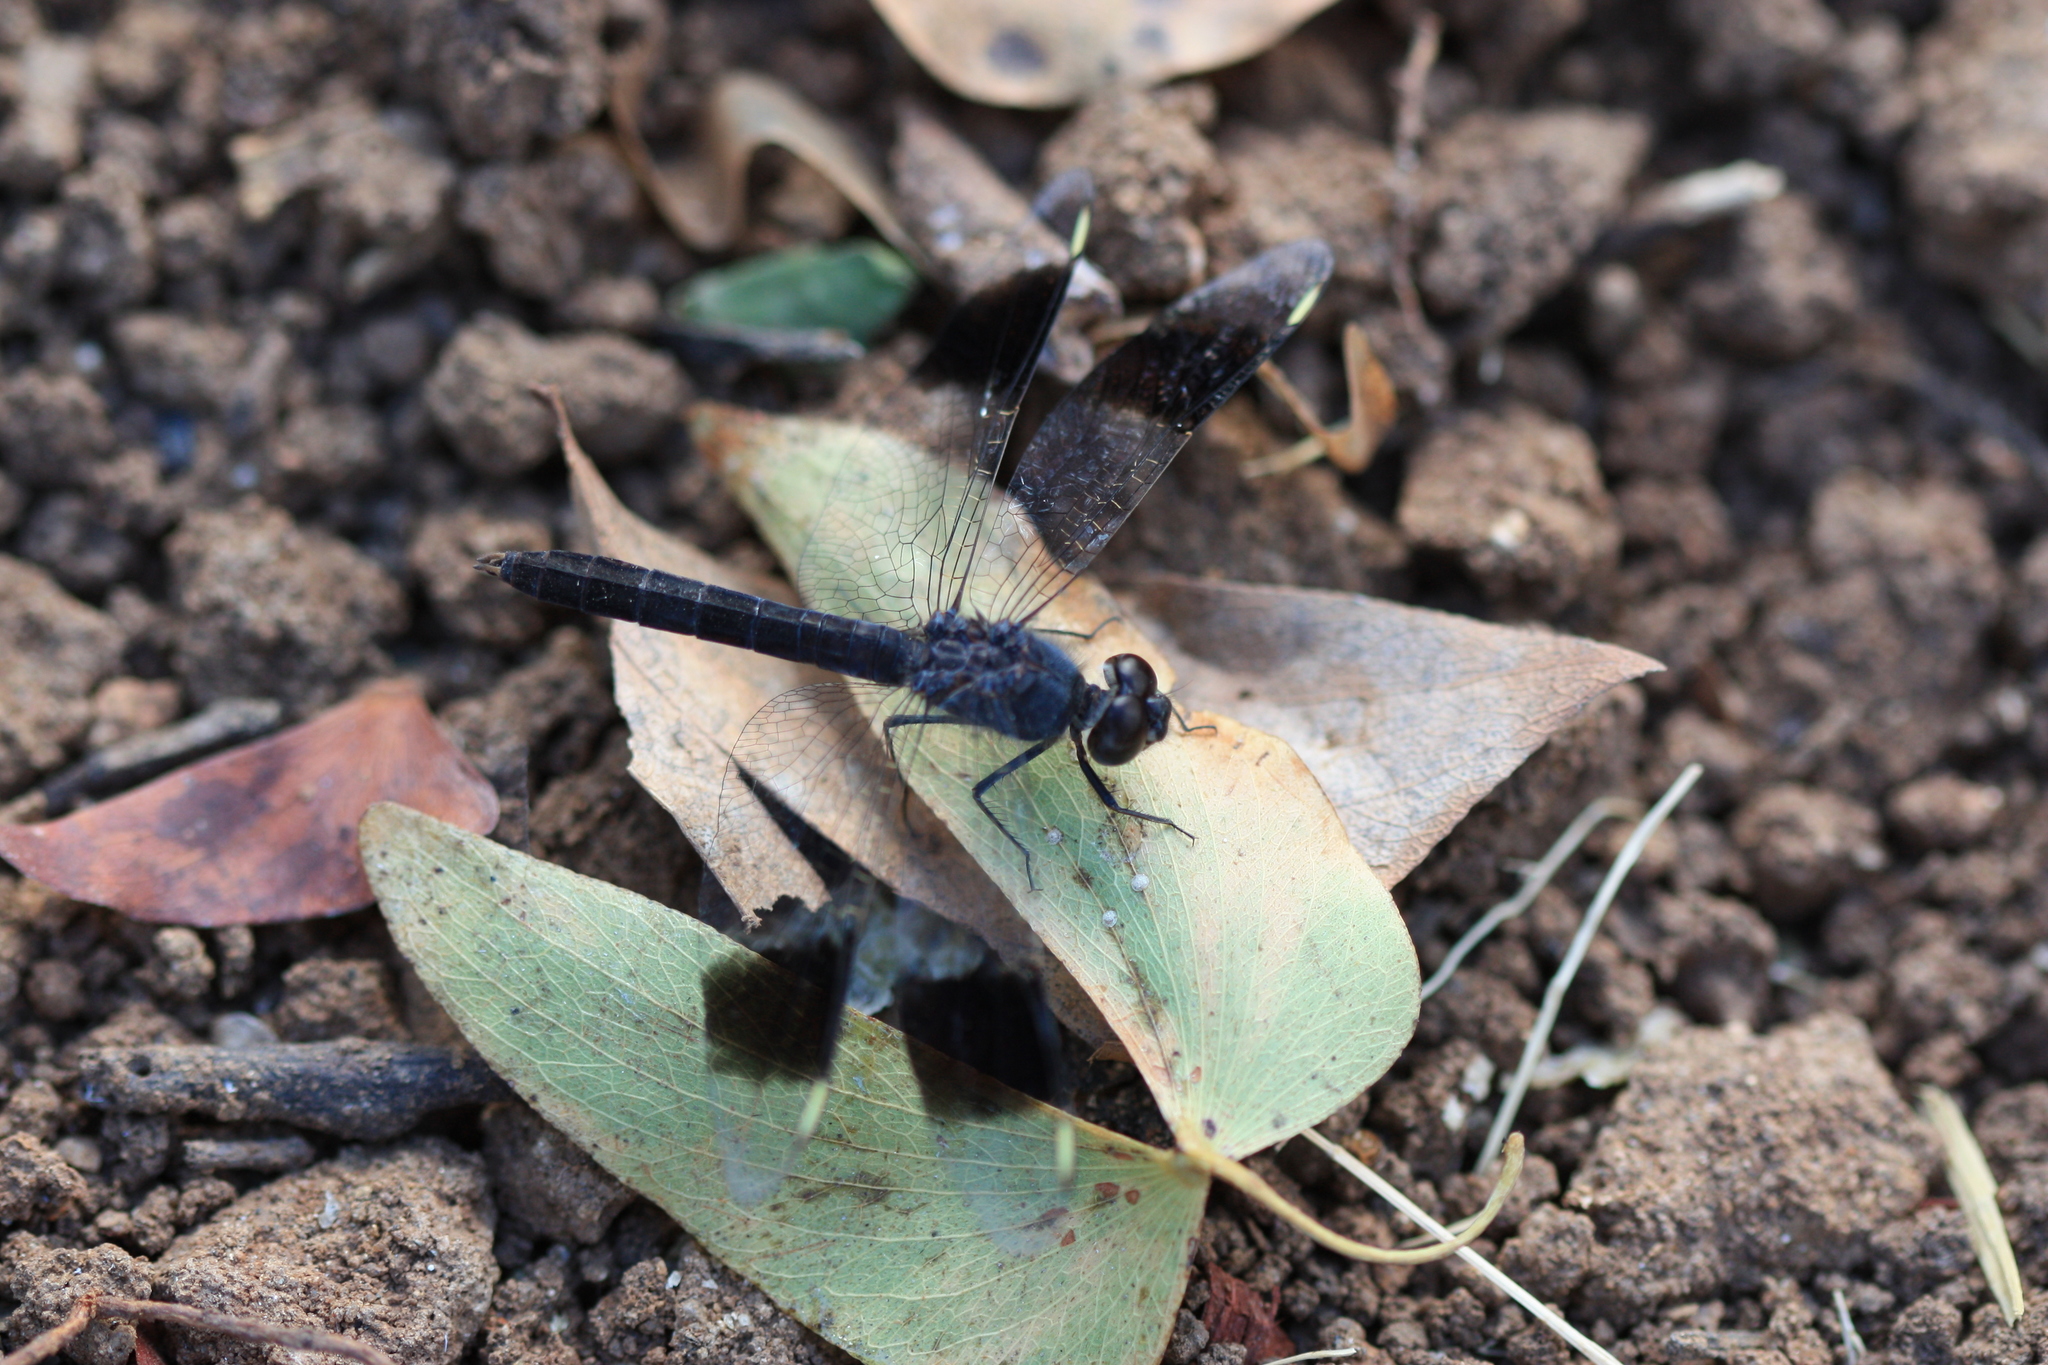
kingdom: Animalia
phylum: Arthropoda
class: Insecta
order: Odonata
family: Libellulidae
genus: Brachythemis
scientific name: Brachythemis leucosticta
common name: Banded groundling
